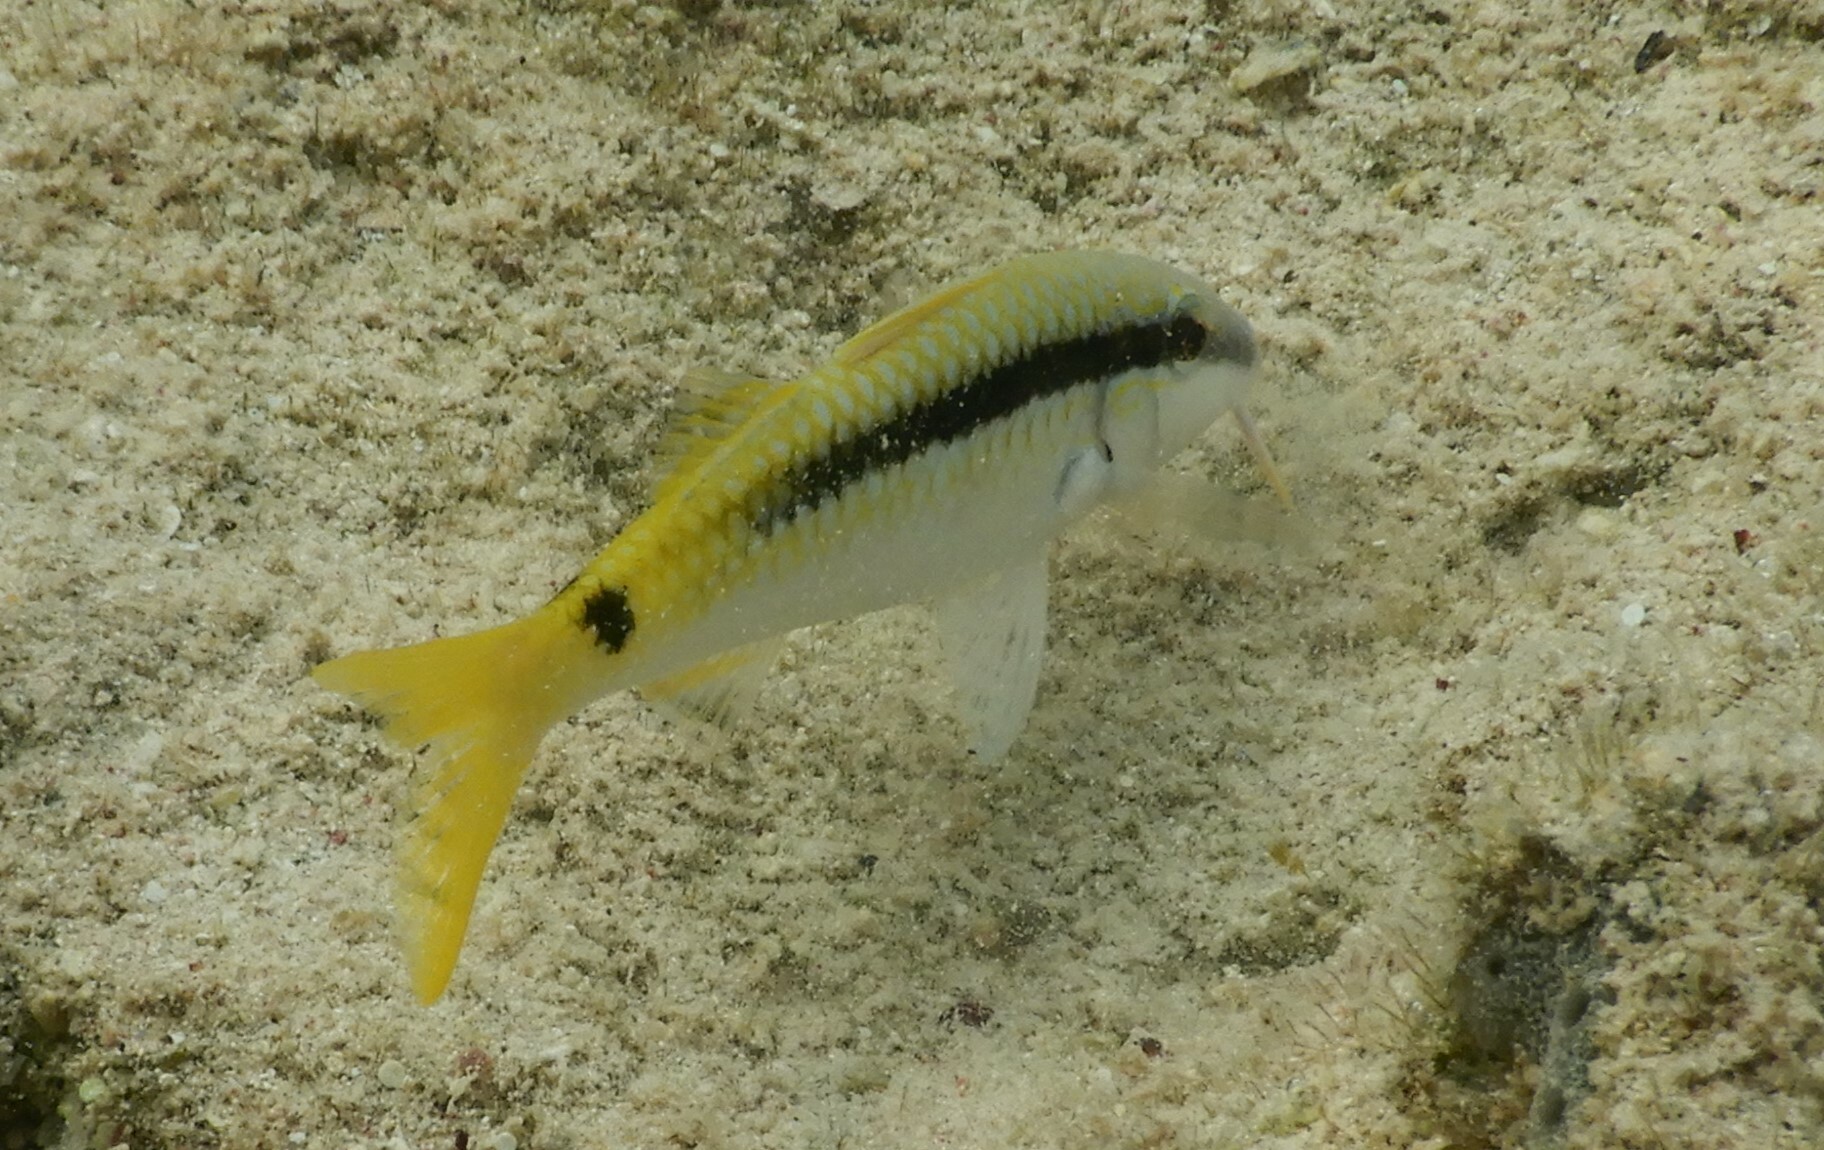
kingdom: Animalia
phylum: Chordata
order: Perciformes
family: Mullidae
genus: Parupeneus
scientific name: Parupeneus forsskali
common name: Red sea goatfish
